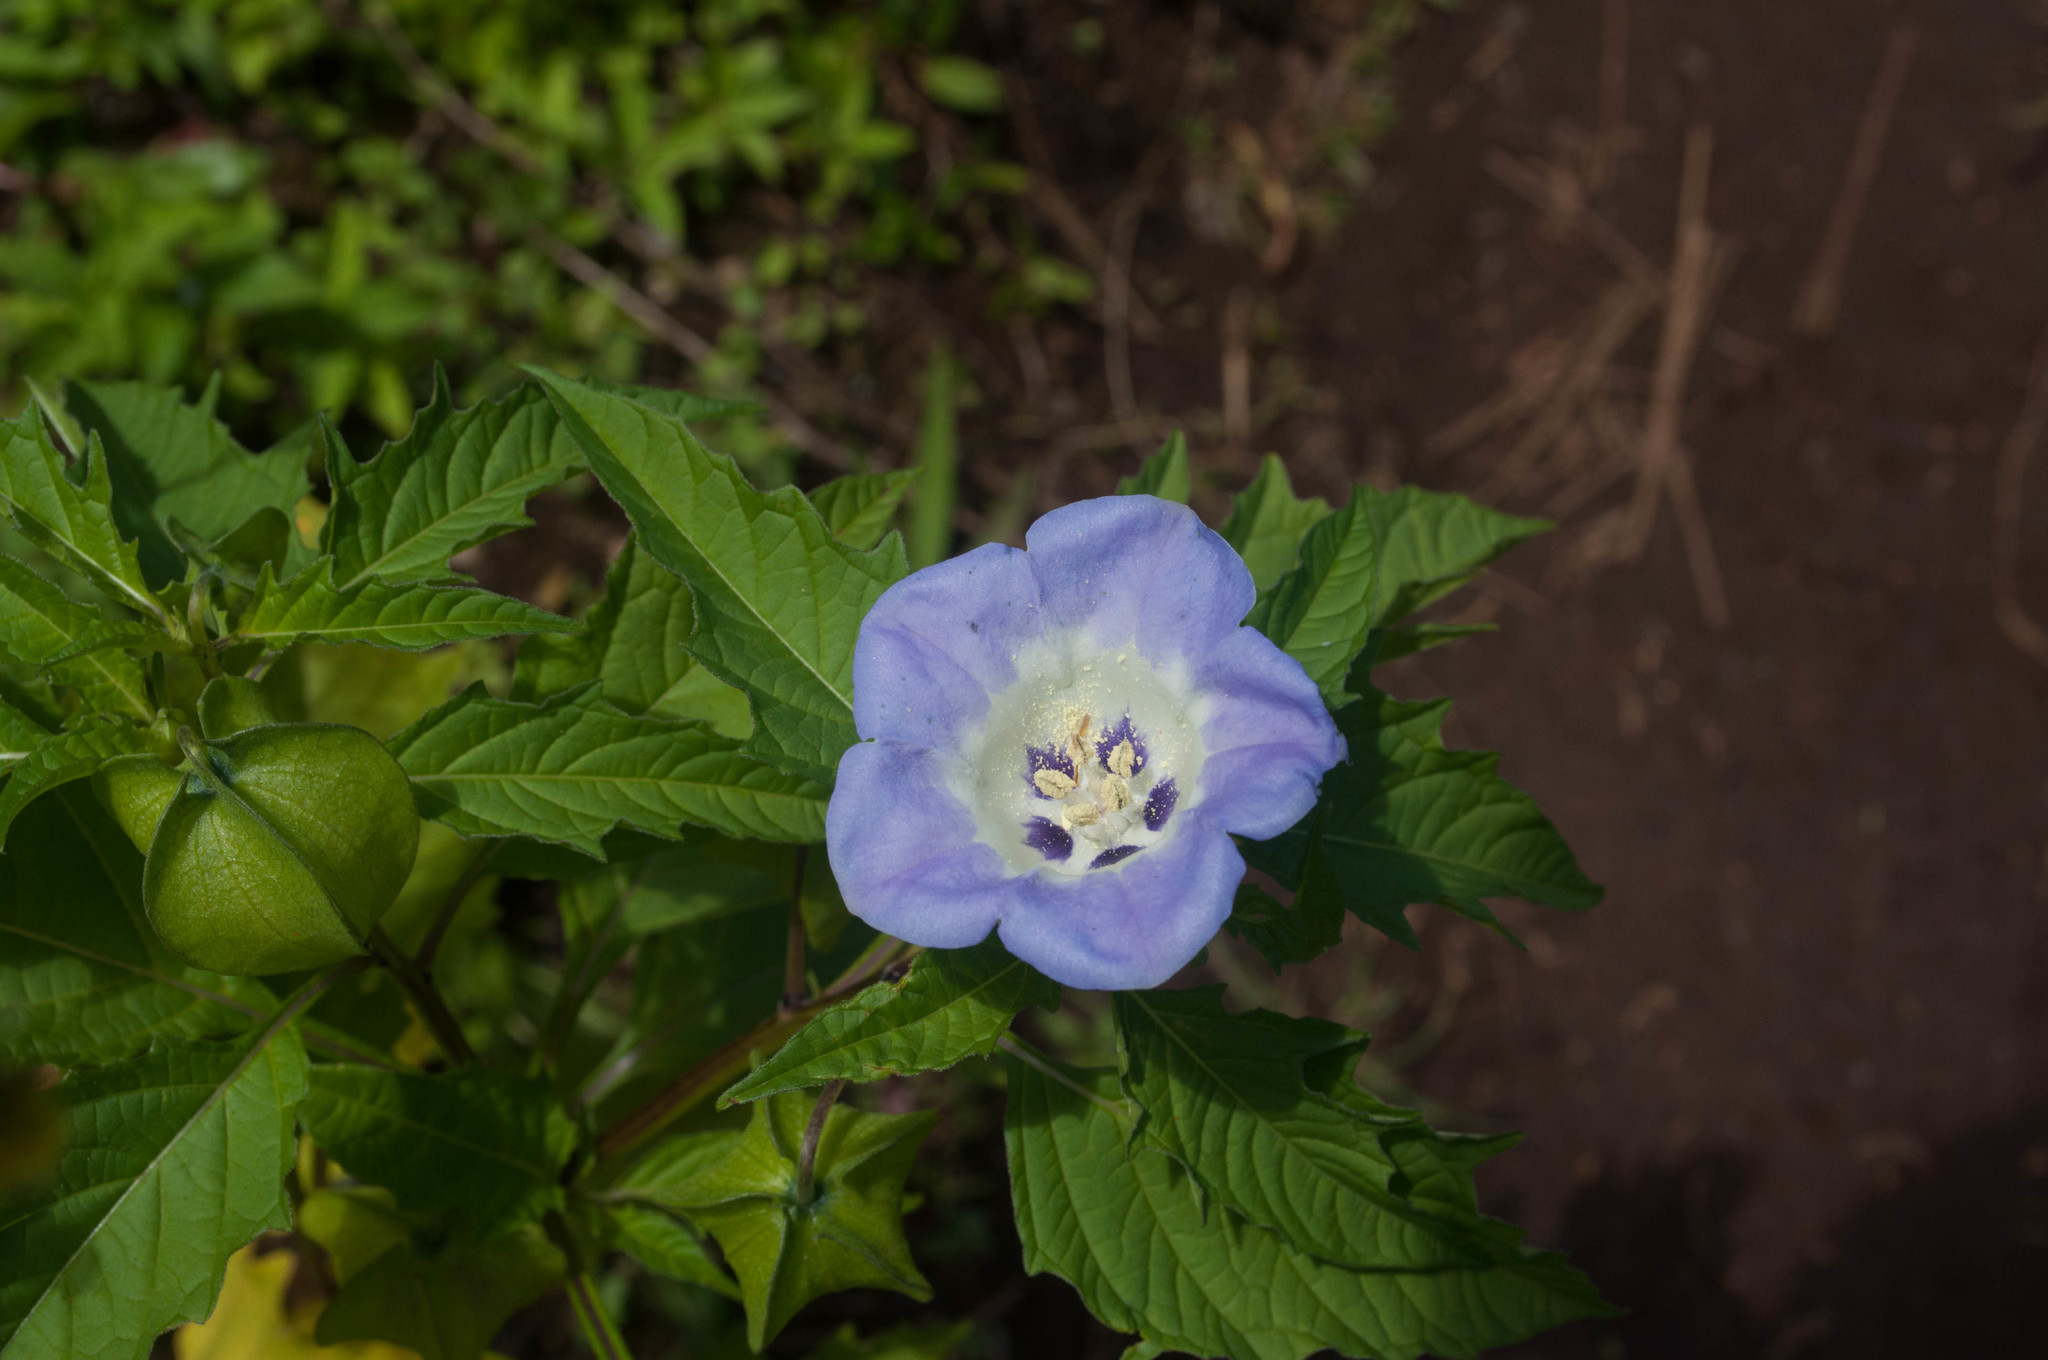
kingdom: Plantae
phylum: Tracheophyta
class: Magnoliopsida
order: Solanales
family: Solanaceae
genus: Nicandra
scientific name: Nicandra physalodes
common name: Apple-of-peru
